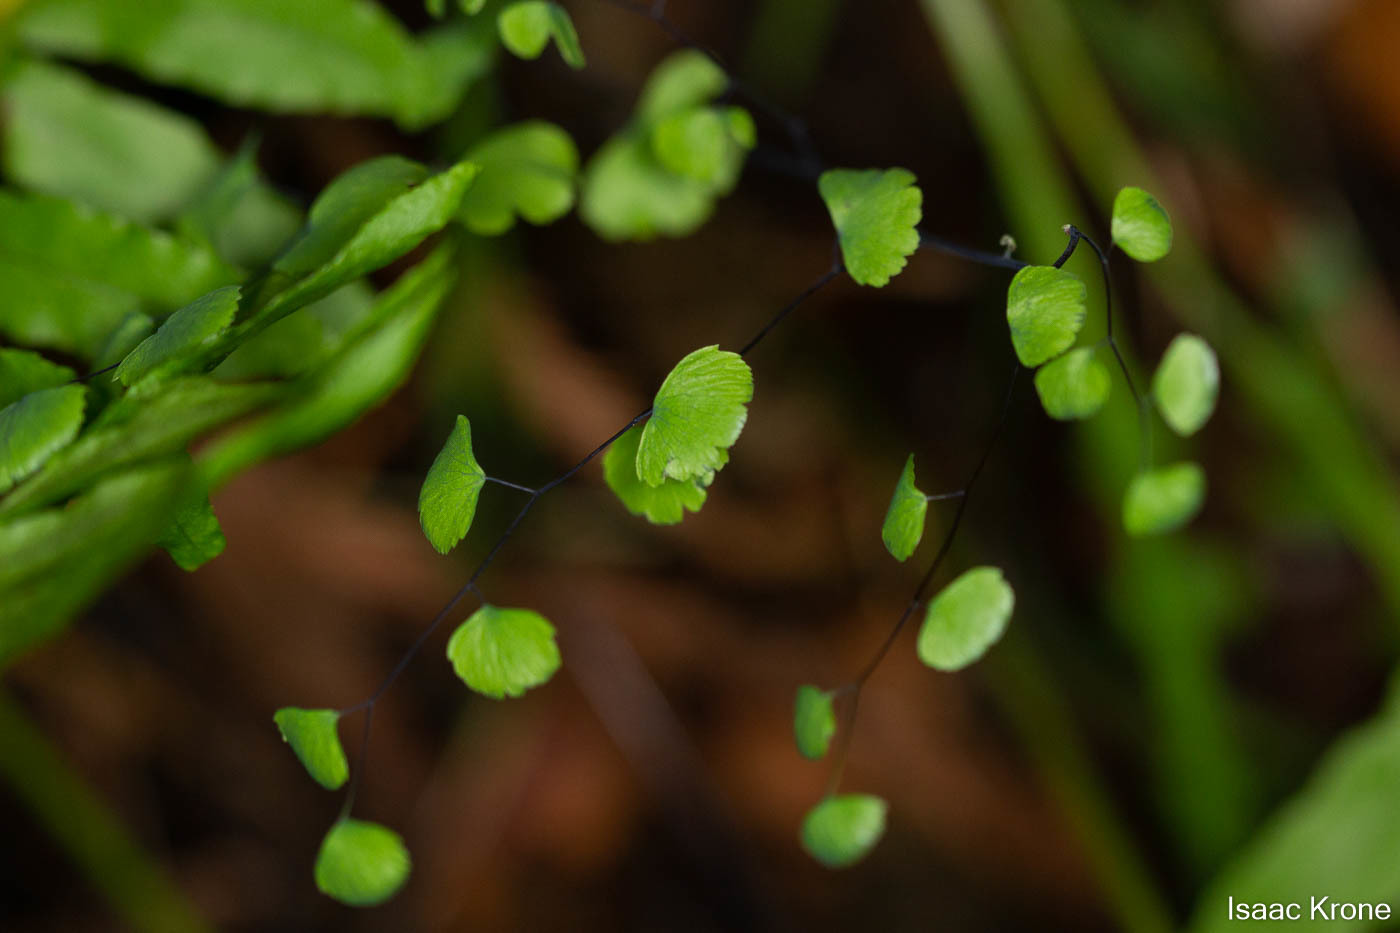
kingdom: Plantae
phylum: Tracheophyta
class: Polypodiopsida
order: Polypodiales
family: Pteridaceae
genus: Adiantum
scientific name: Adiantum jordanii
